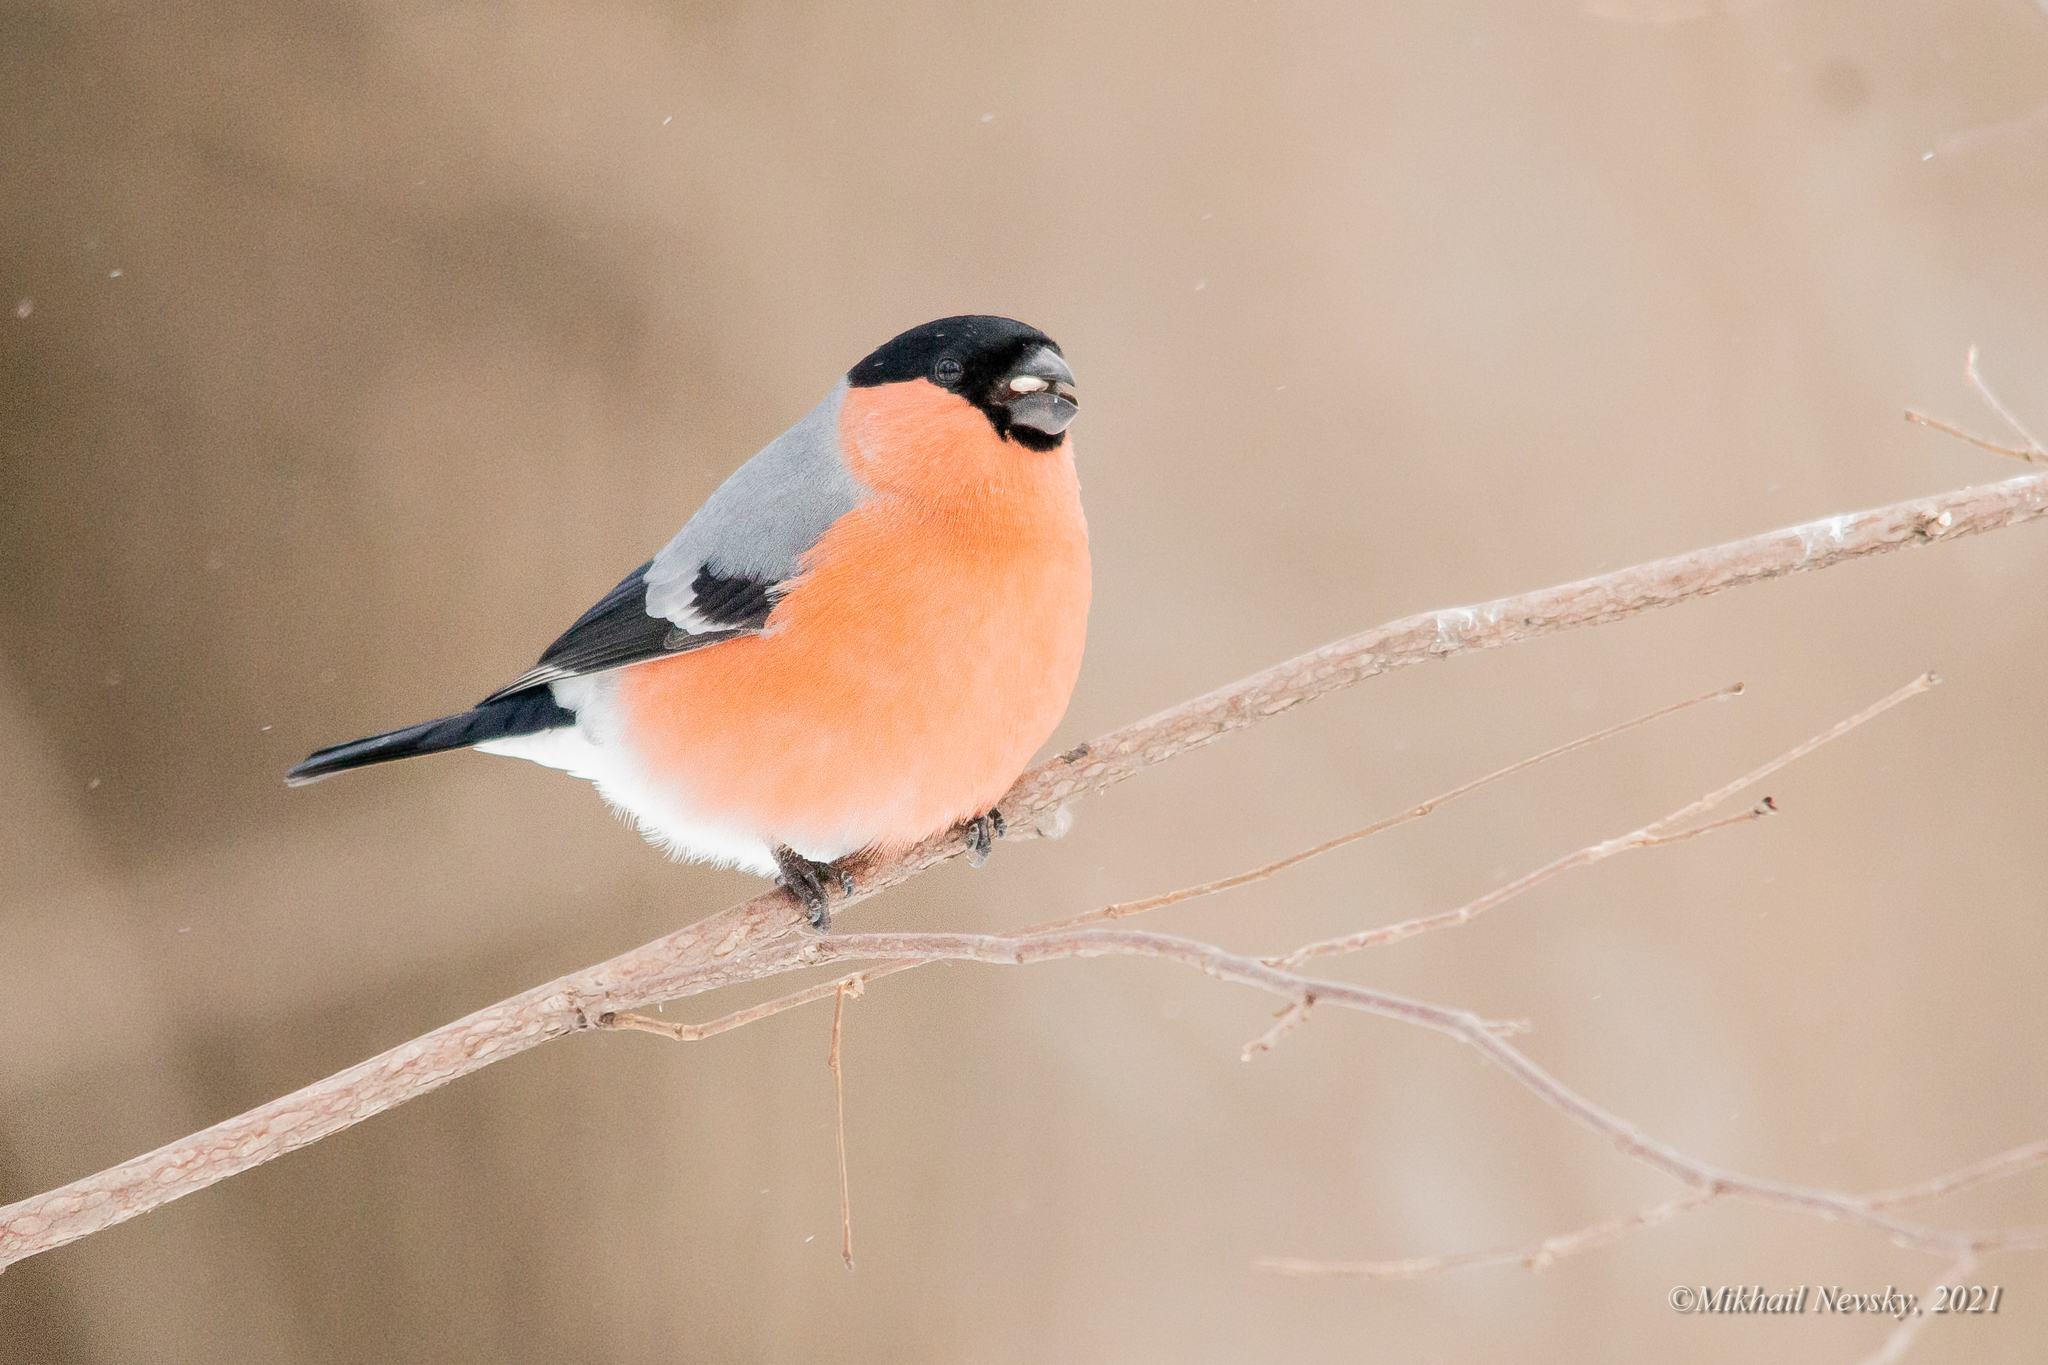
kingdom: Animalia
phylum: Chordata
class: Aves
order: Passeriformes
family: Fringillidae
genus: Pyrrhula
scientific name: Pyrrhula pyrrhula
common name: Eurasian bullfinch
